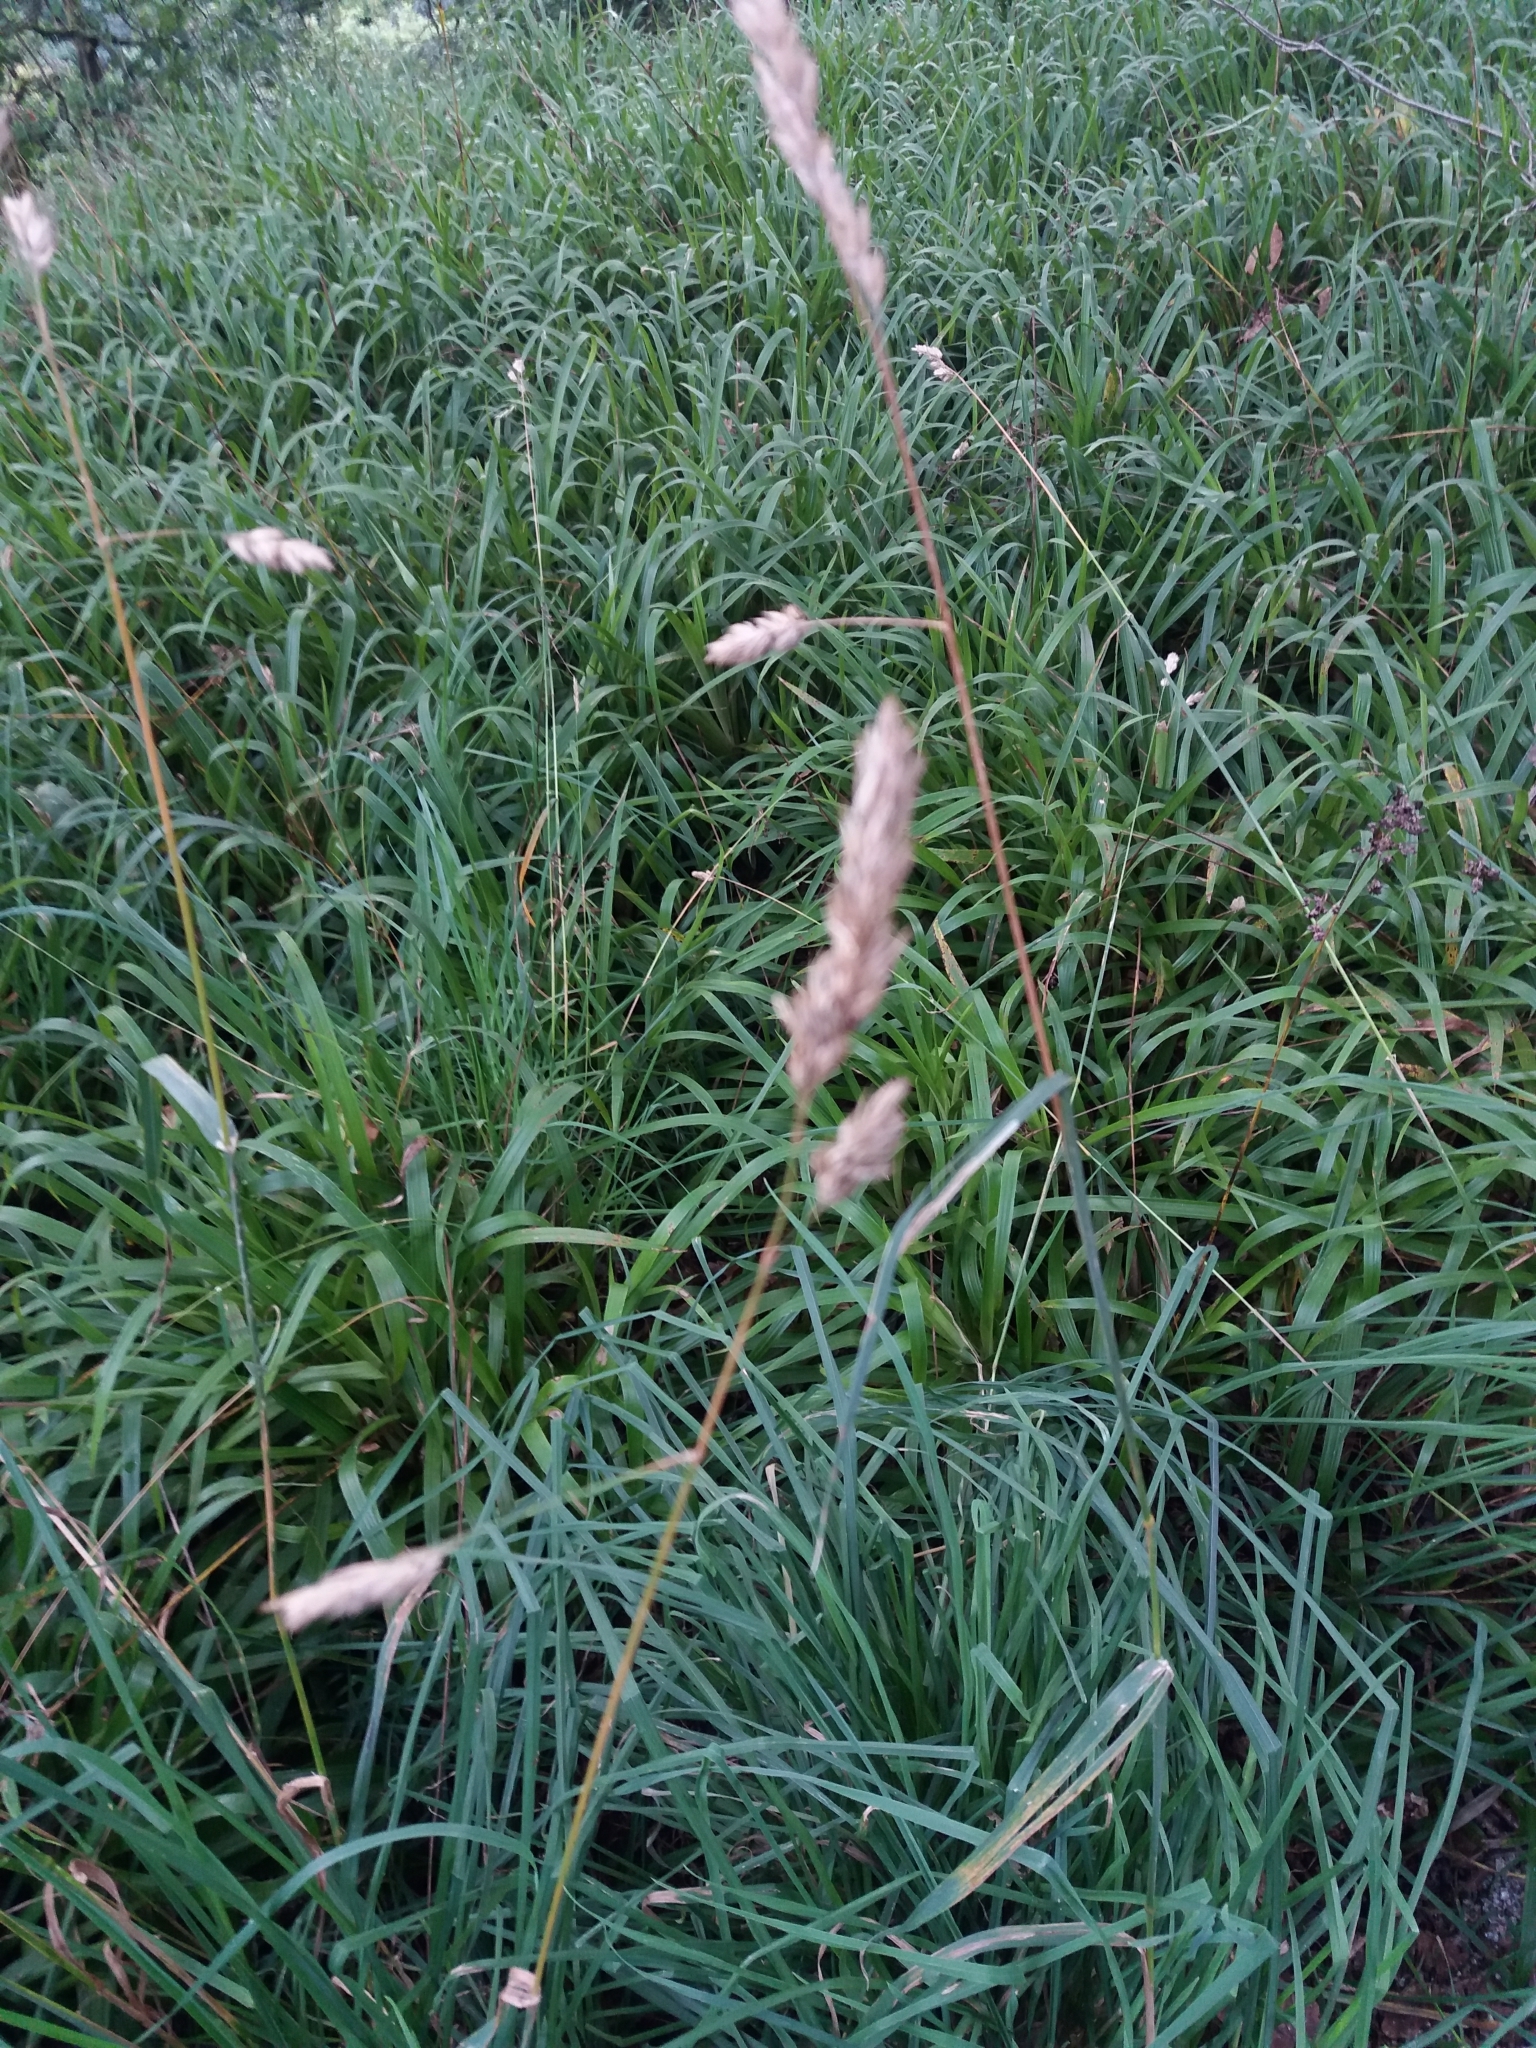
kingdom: Plantae
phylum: Tracheophyta
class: Liliopsida
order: Poales
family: Poaceae
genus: Dactylis
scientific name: Dactylis glomerata
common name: Orchardgrass
